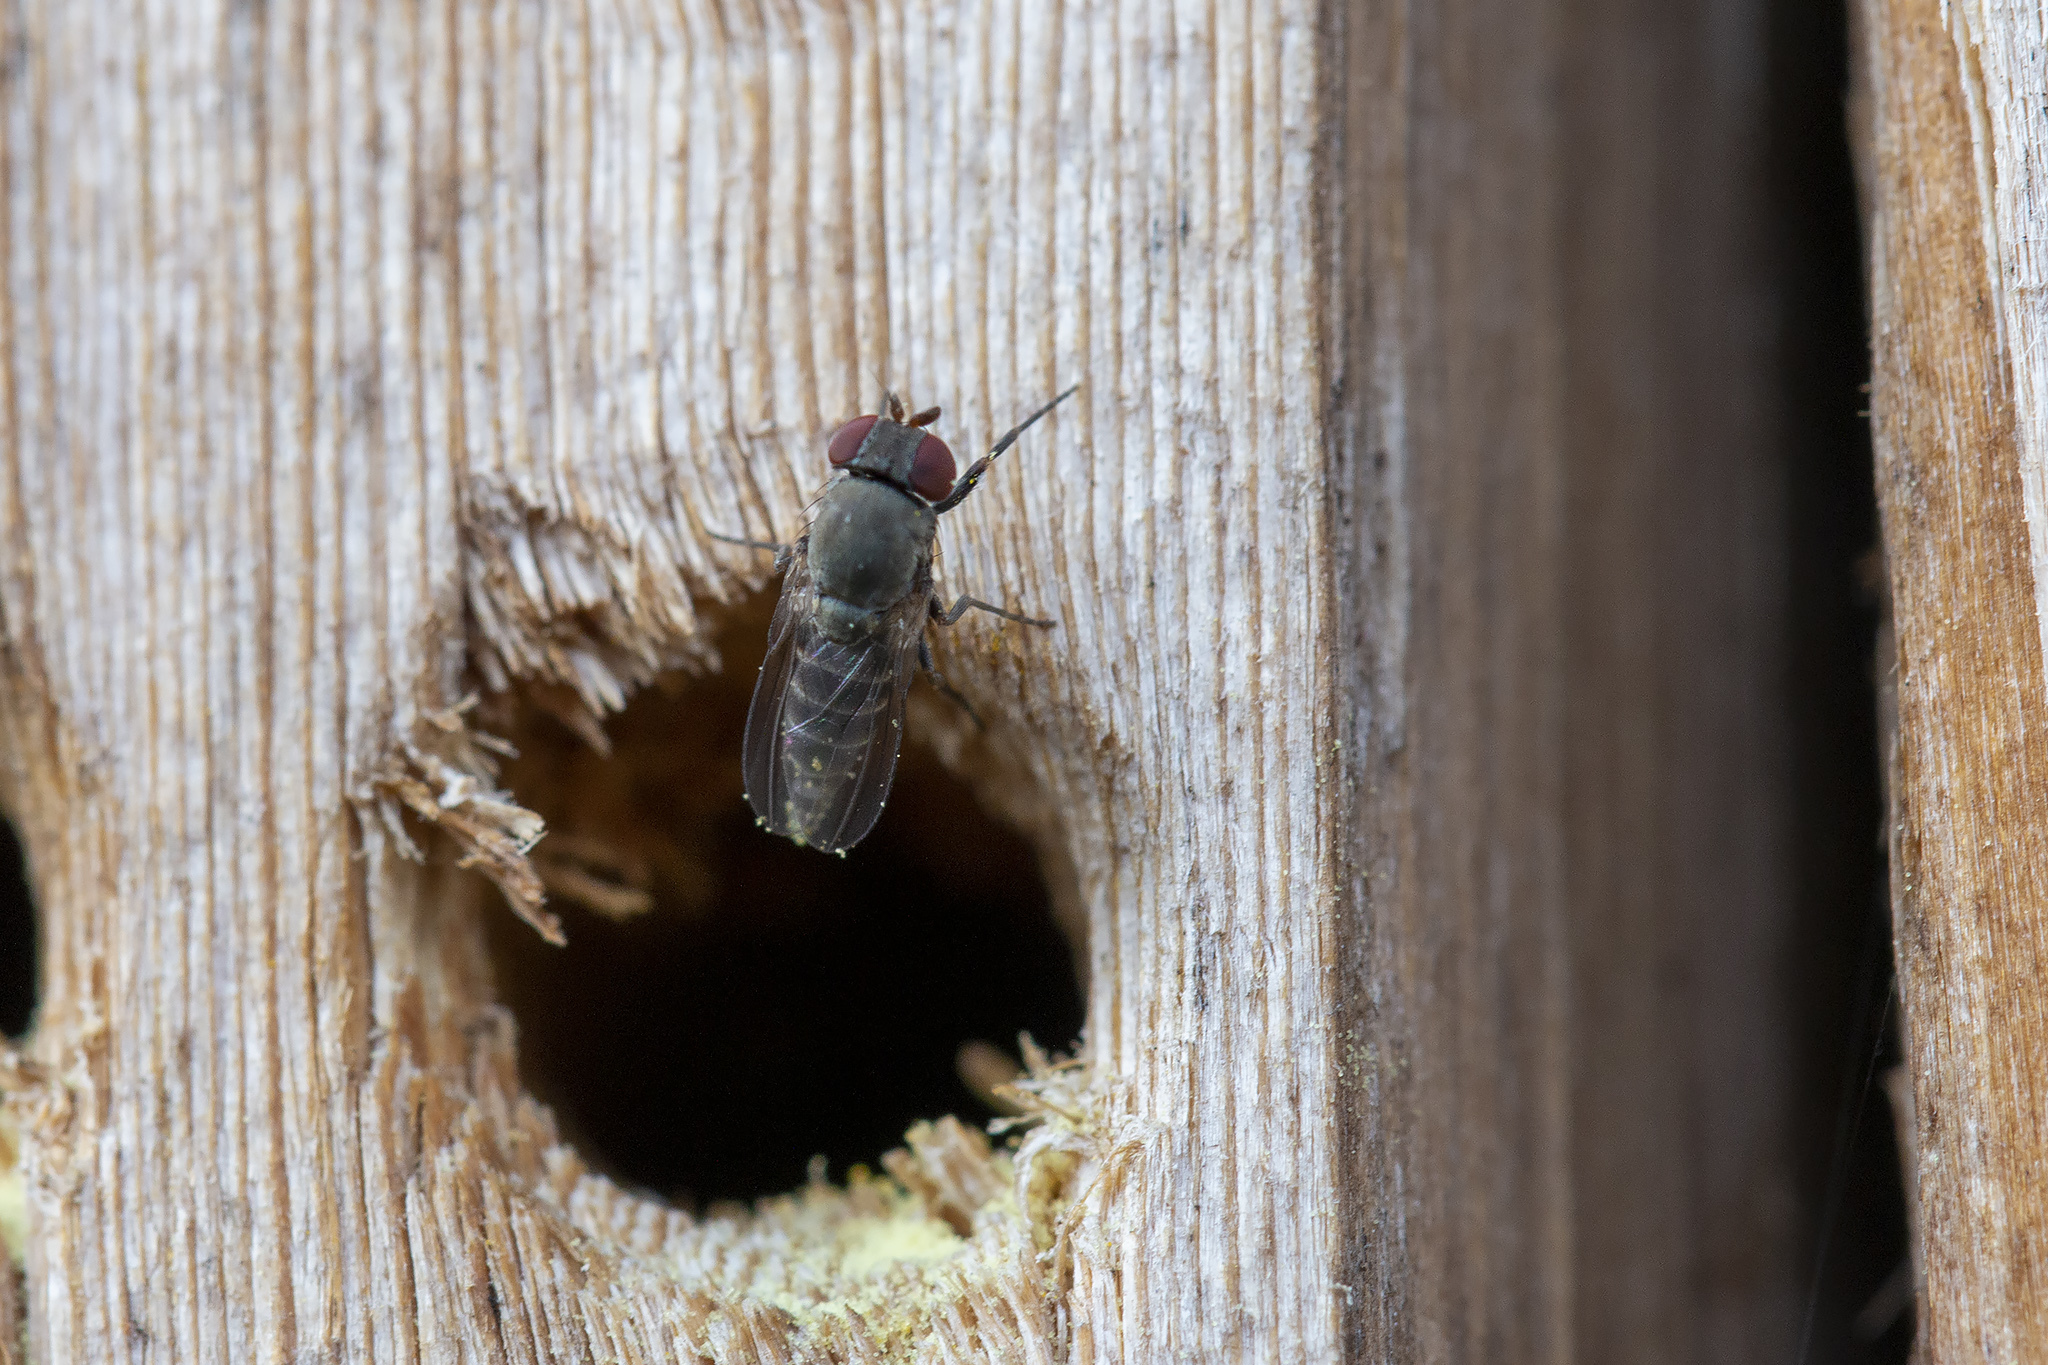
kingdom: Animalia
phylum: Arthropoda
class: Insecta
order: Diptera
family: Drosophilidae
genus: Cacoxenus
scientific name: Cacoxenus indagator
